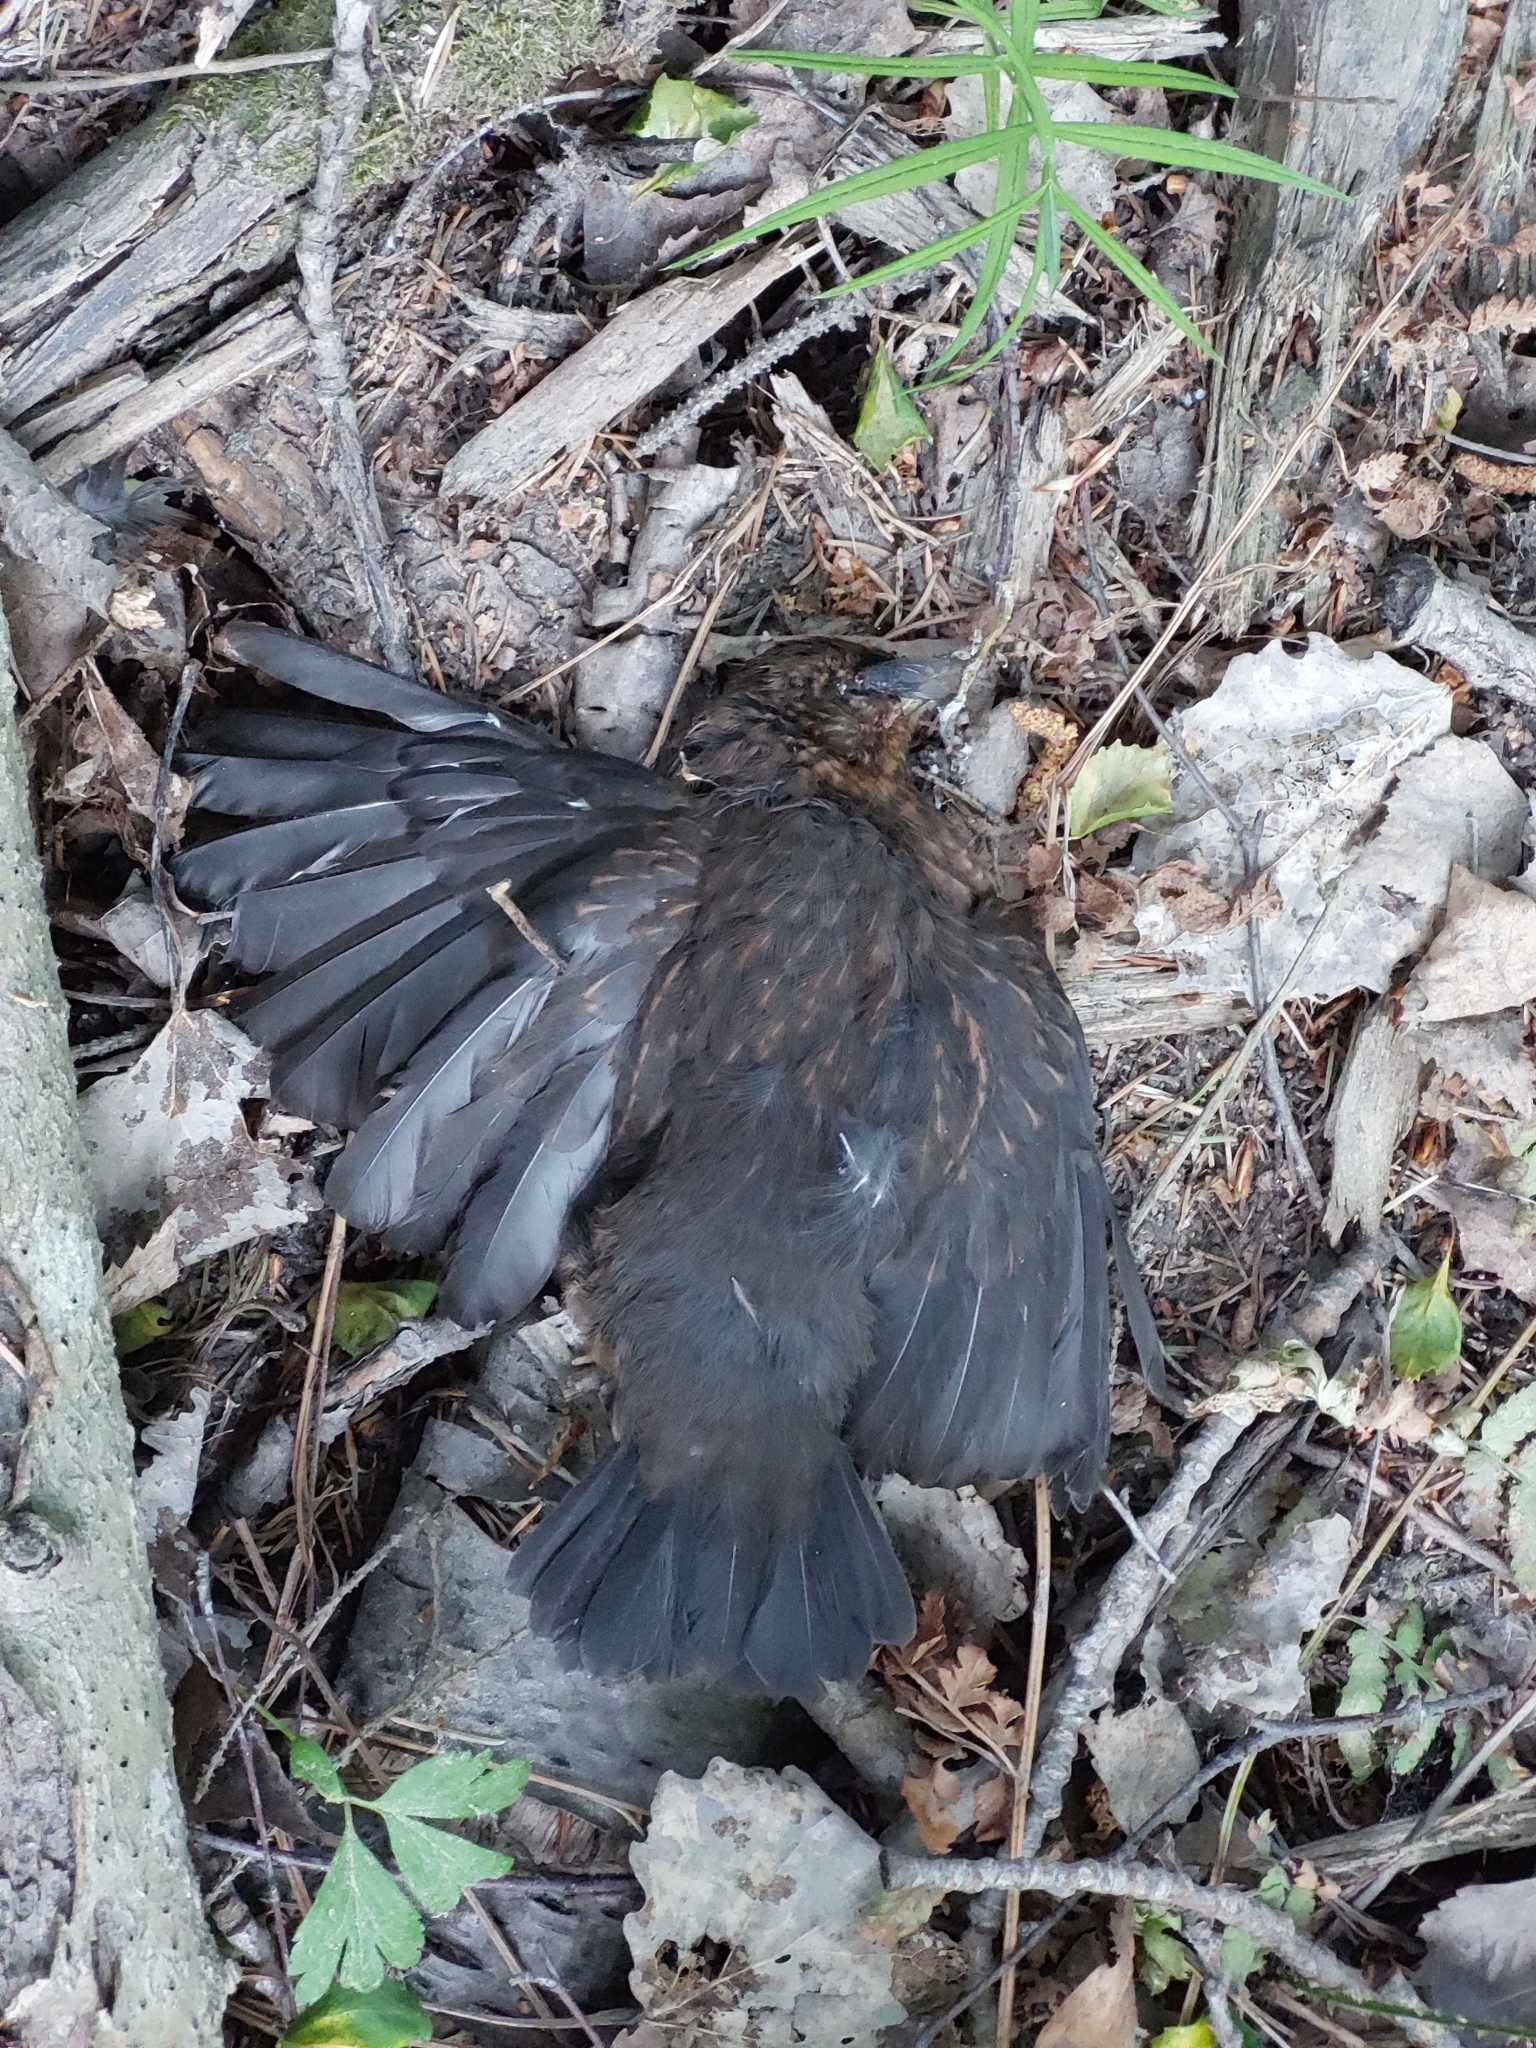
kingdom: Animalia
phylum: Chordata
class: Aves
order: Passeriformes
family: Turdidae
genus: Turdus
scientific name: Turdus merula
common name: Common blackbird
